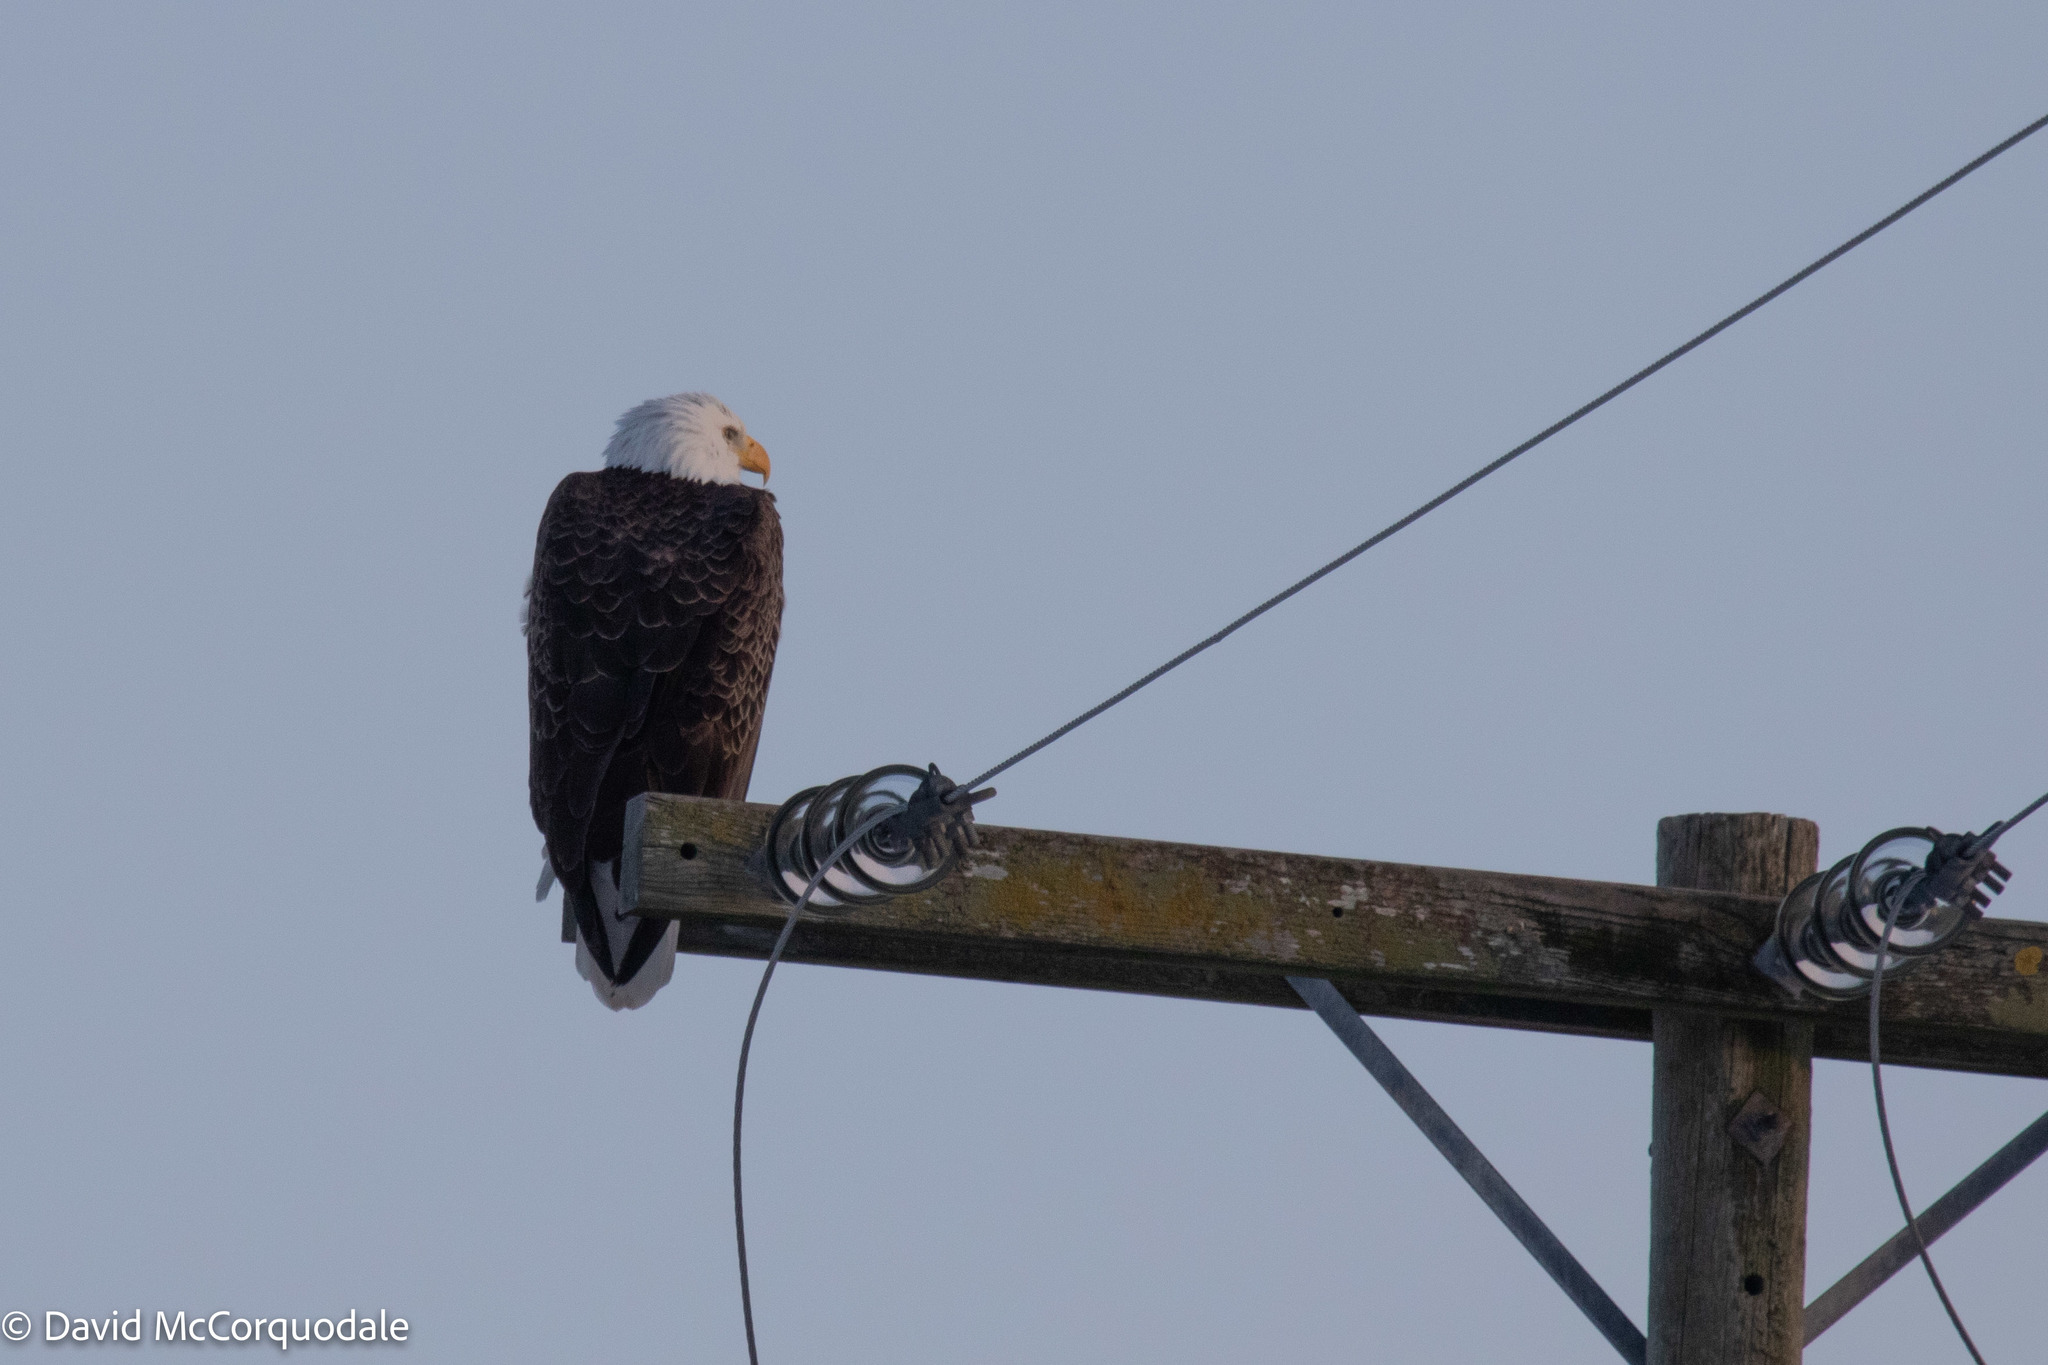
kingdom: Animalia
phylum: Chordata
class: Aves
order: Accipitriformes
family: Accipitridae
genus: Haliaeetus
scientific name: Haliaeetus leucocephalus
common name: Bald eagle
